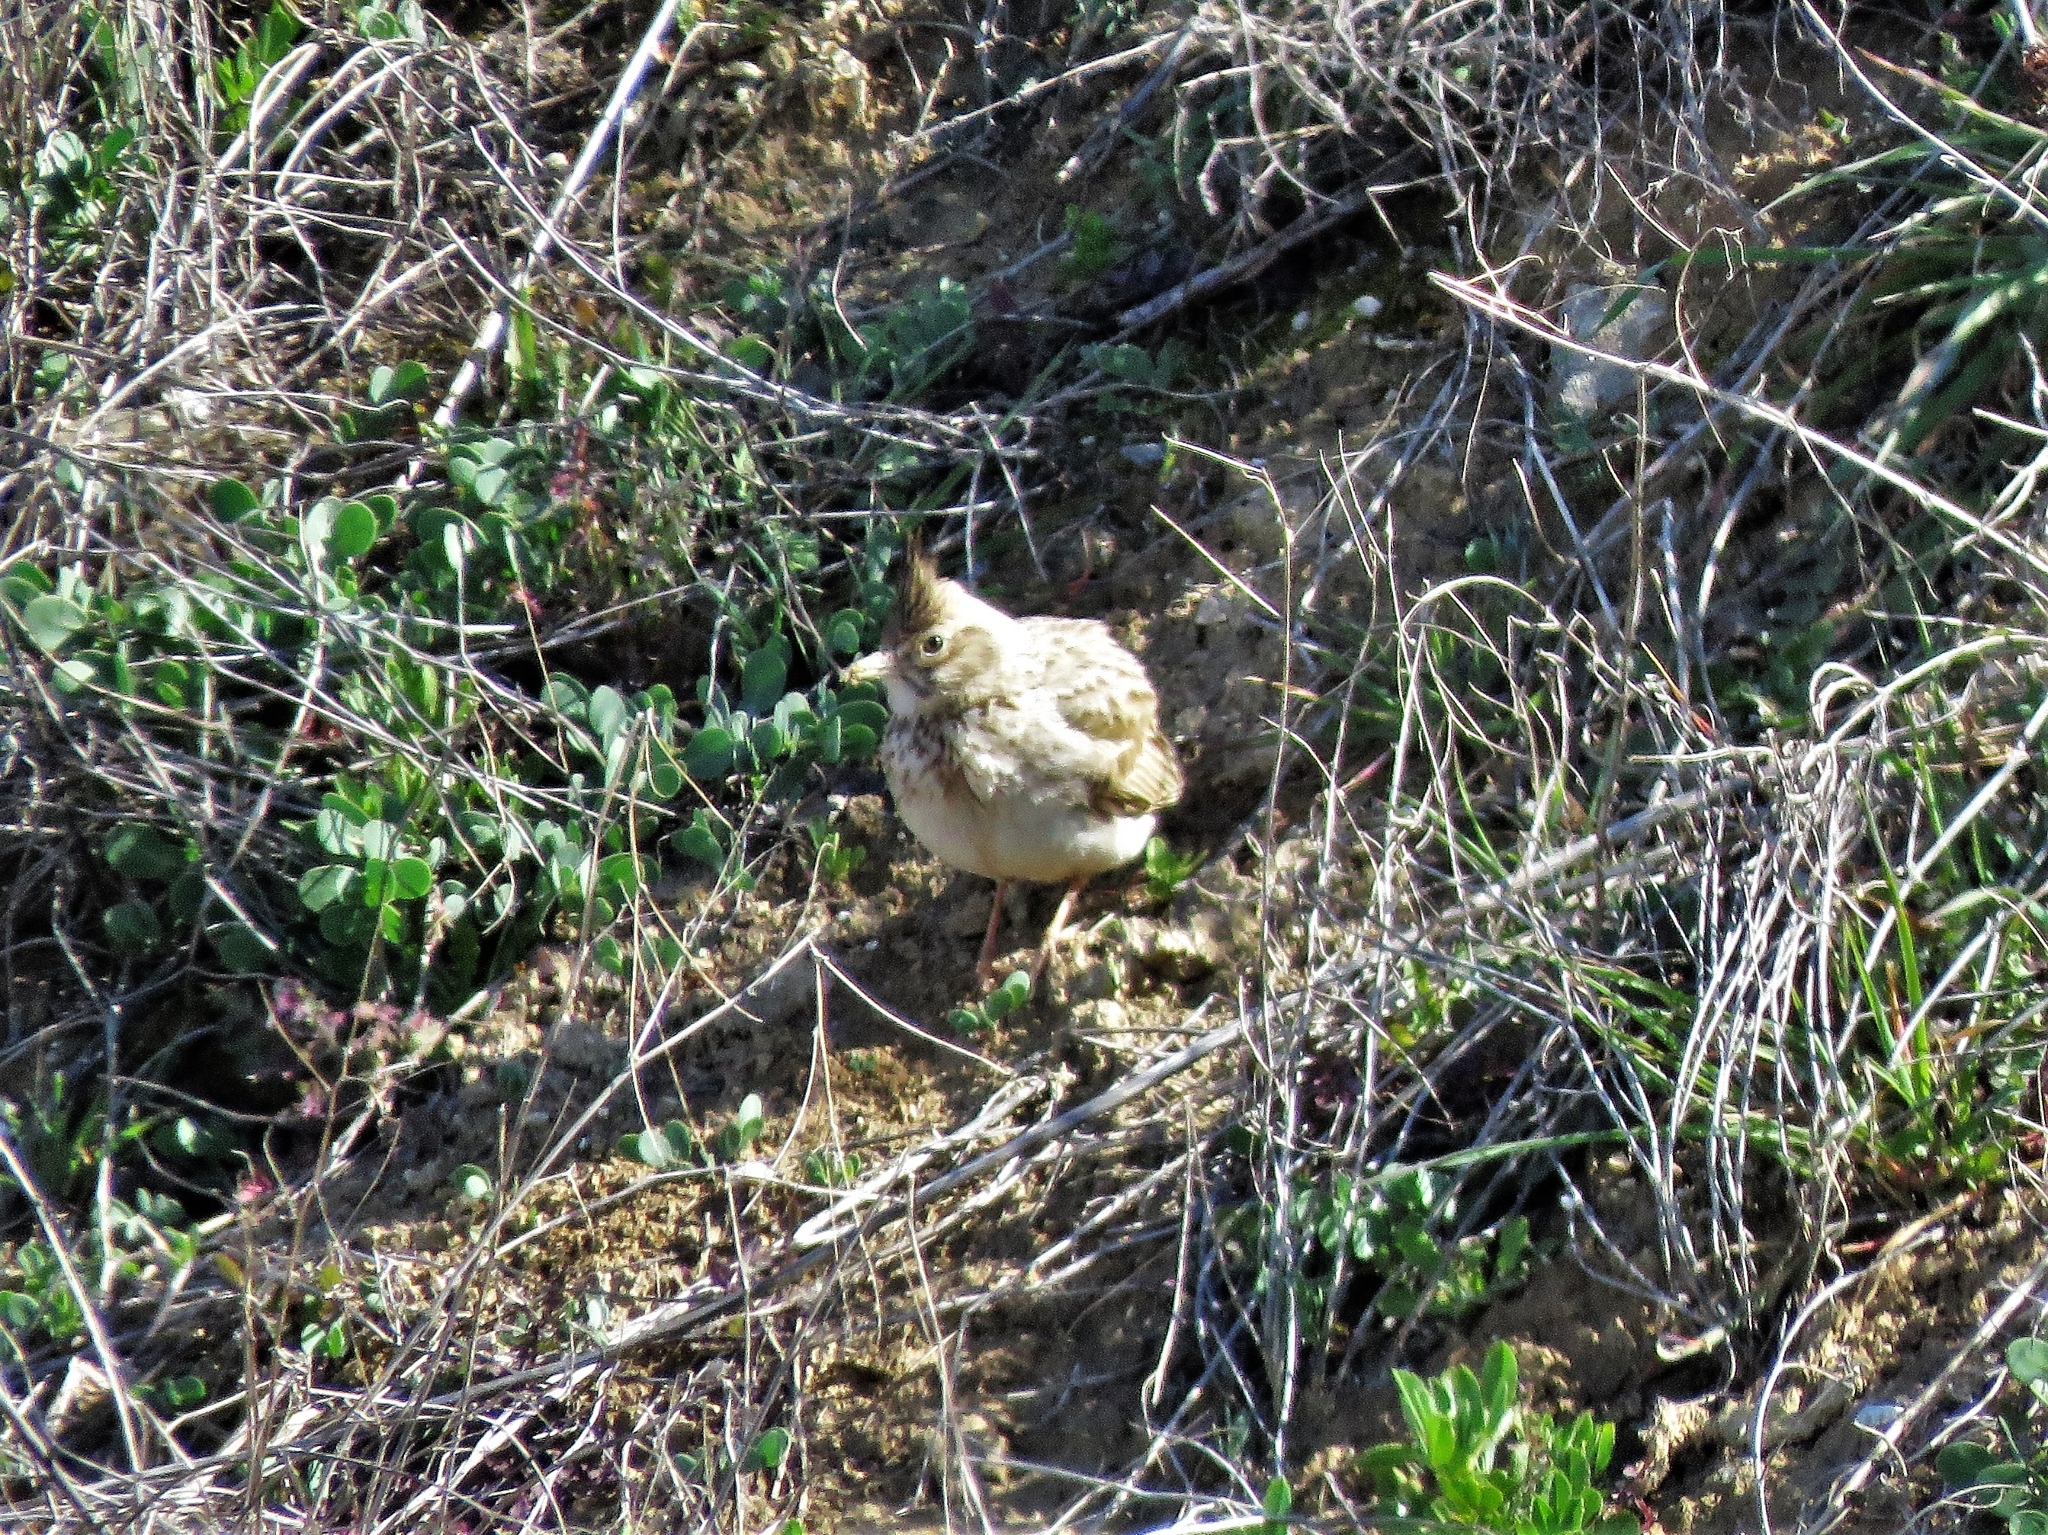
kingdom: Animalia
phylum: Chordata
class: Aves
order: Passeriformes
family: Alaudidae
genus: Galerida
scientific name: Galerida cristata
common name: Crested lark
